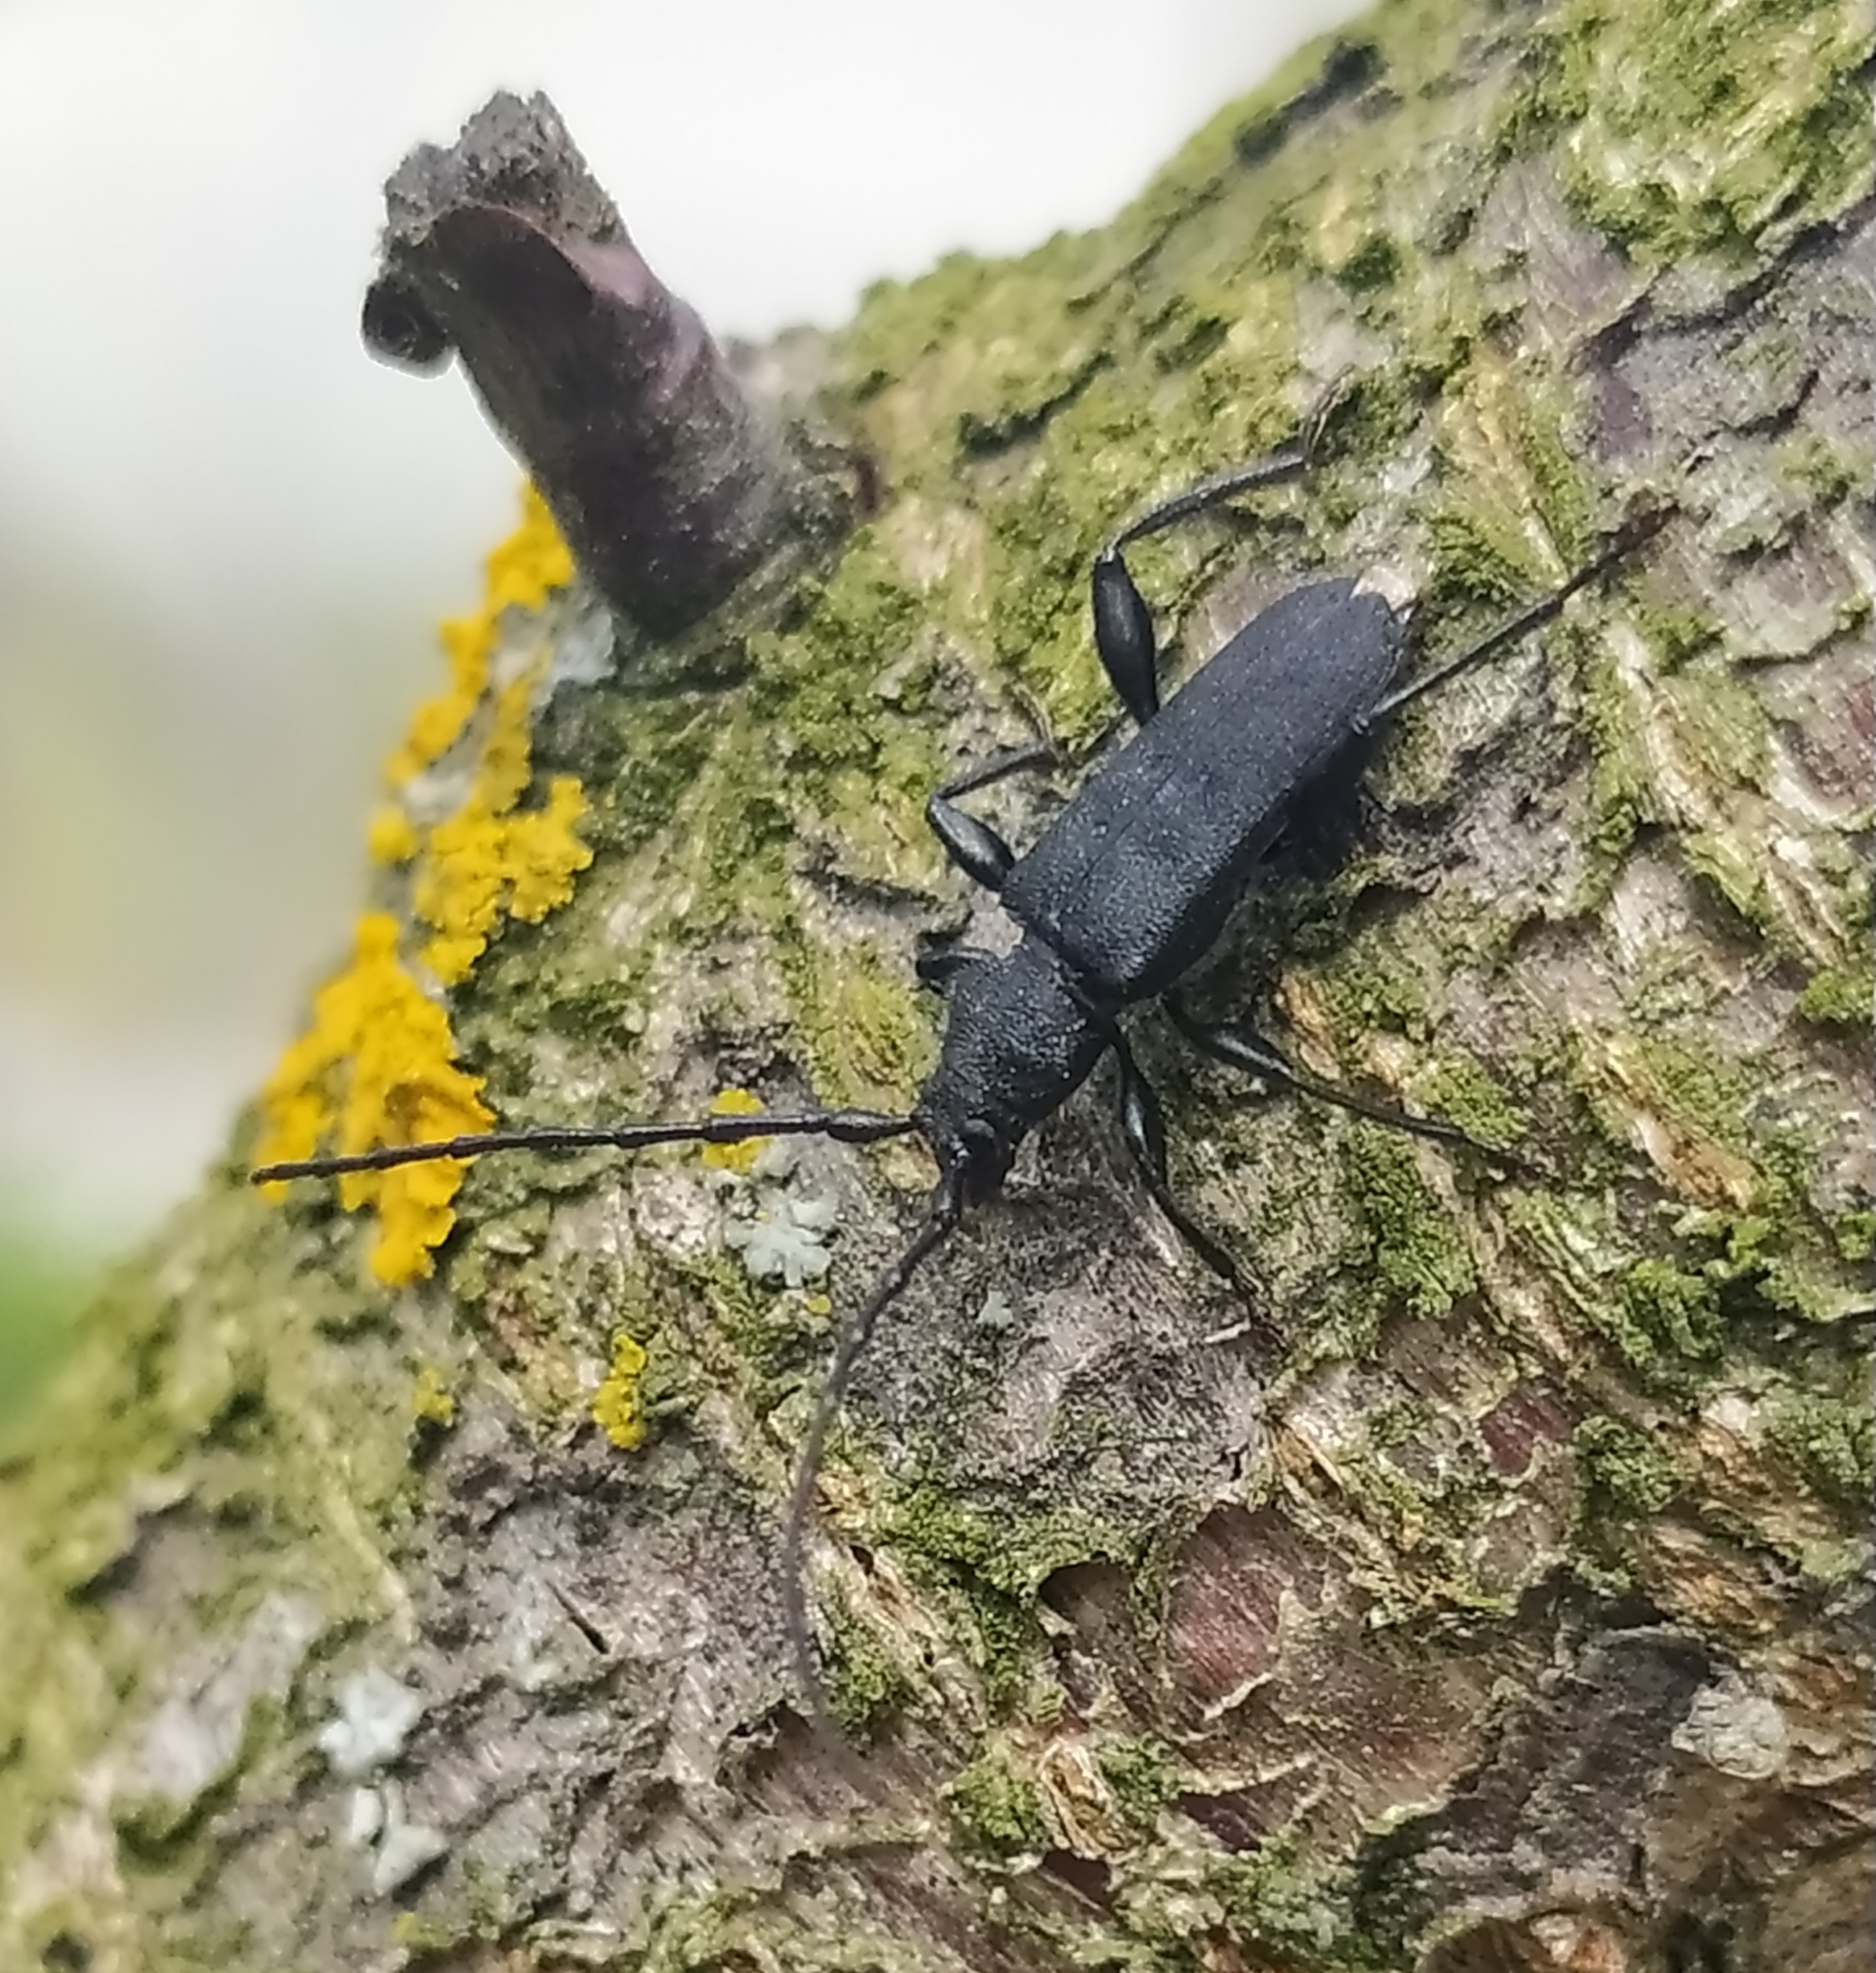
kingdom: Animalia
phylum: Arthropoda
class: Insecta
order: Coleoptera
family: Cerambycidae
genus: Ropalopus
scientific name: Ropalopus macropus
